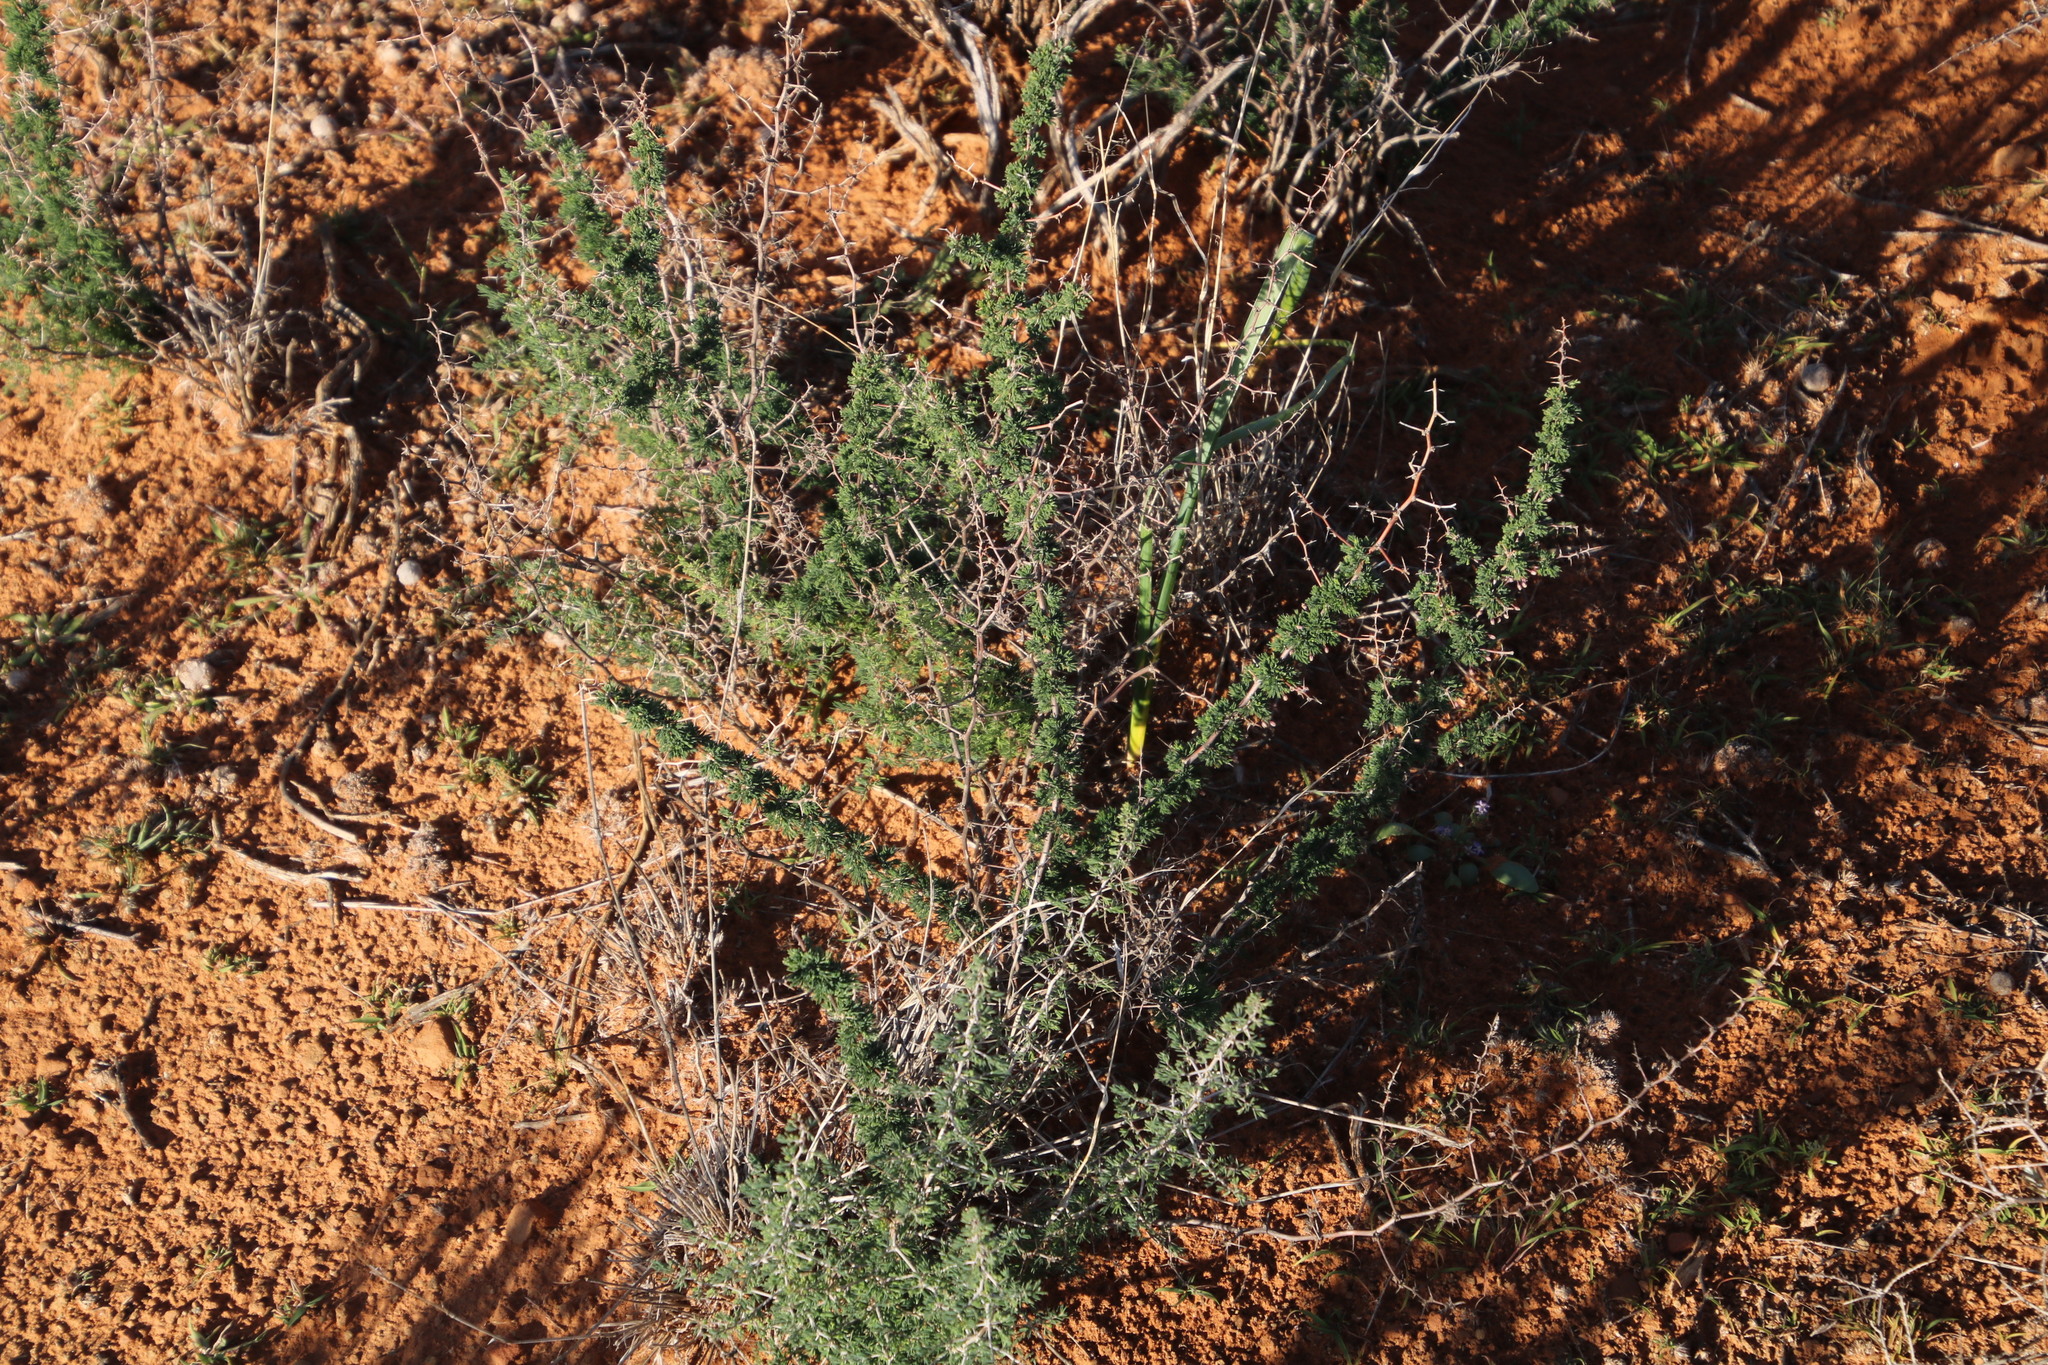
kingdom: Plantae
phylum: Tracheophyta
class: Liliopsida
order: Asparagales
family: Asparagaceae
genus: Asparagus
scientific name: Asparagus suaveolens
